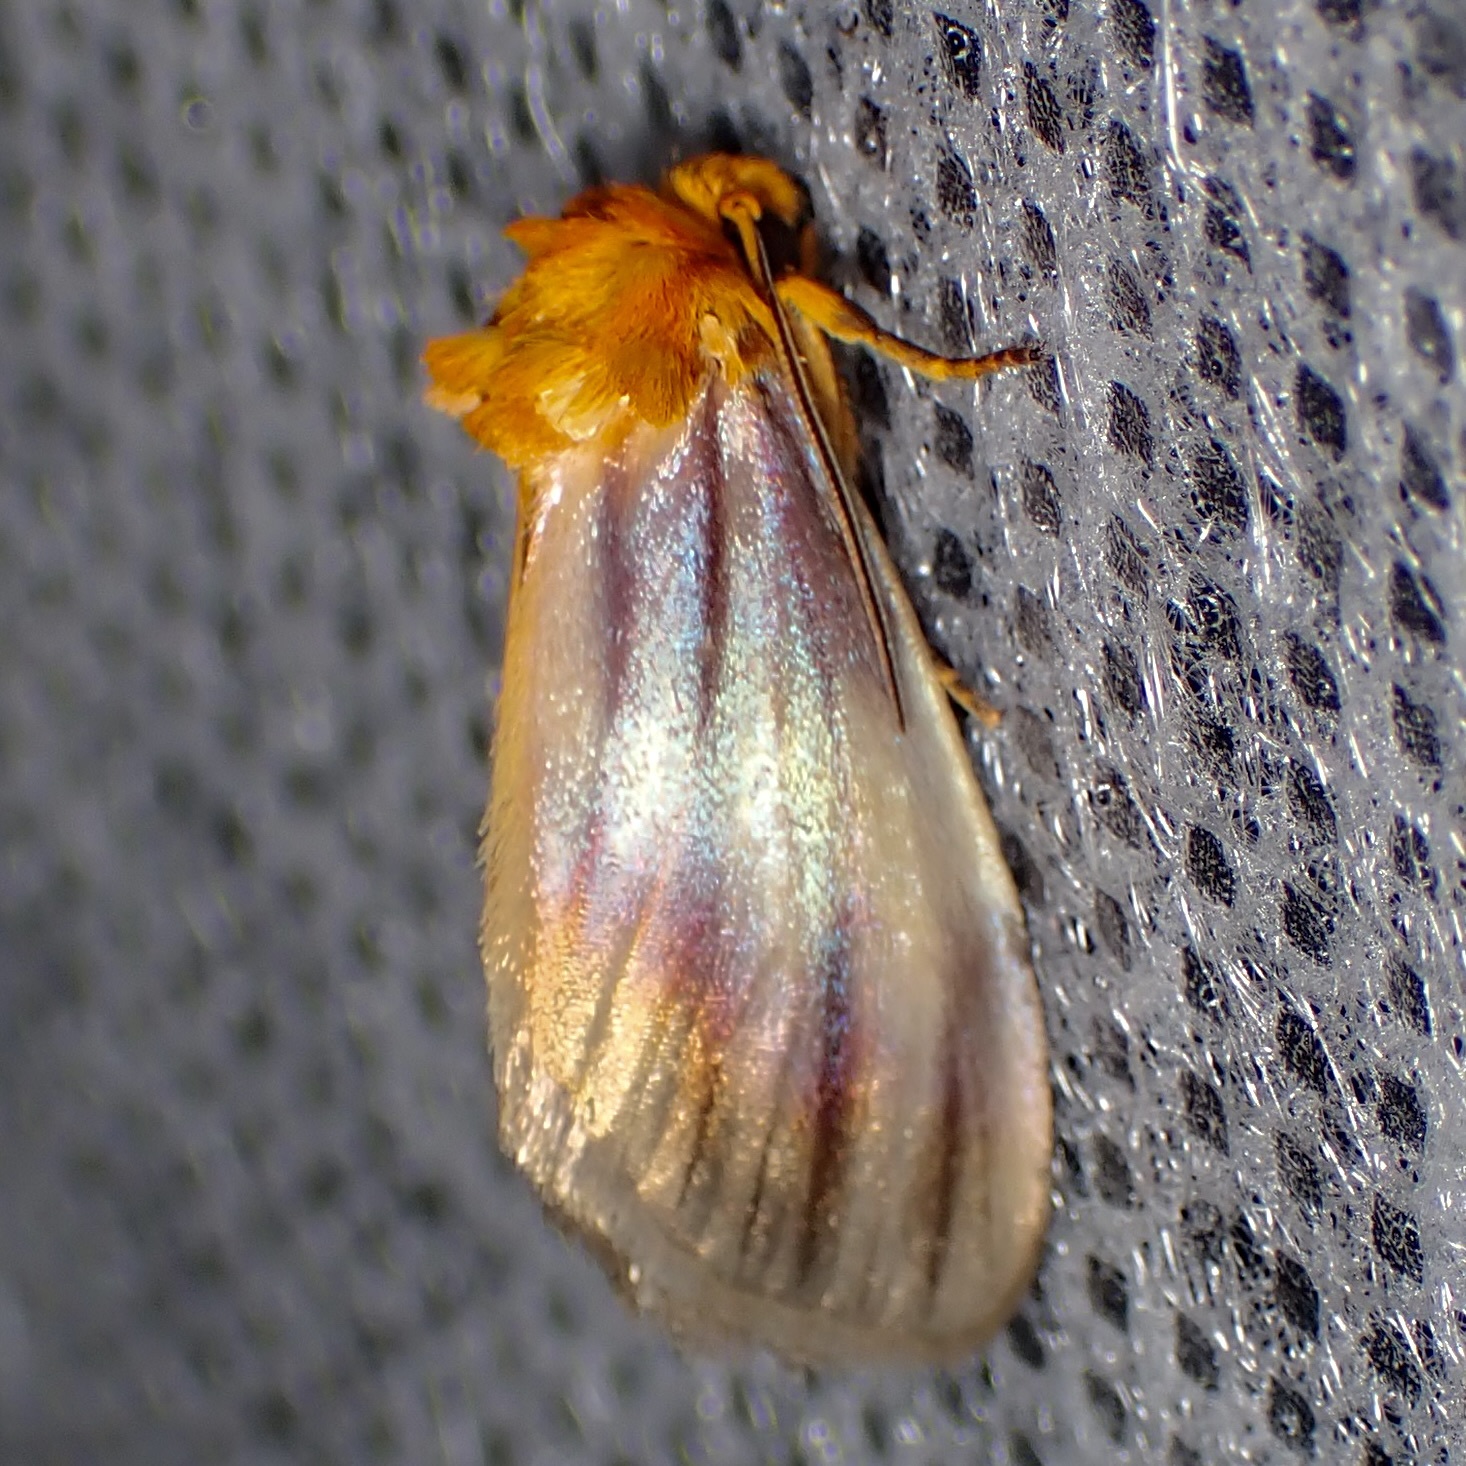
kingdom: Animalia
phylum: Arthropoda
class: Insecta
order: Lepidoptera
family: Noctuidae
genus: Antaplaga
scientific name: Antaplaga plesioglauca
